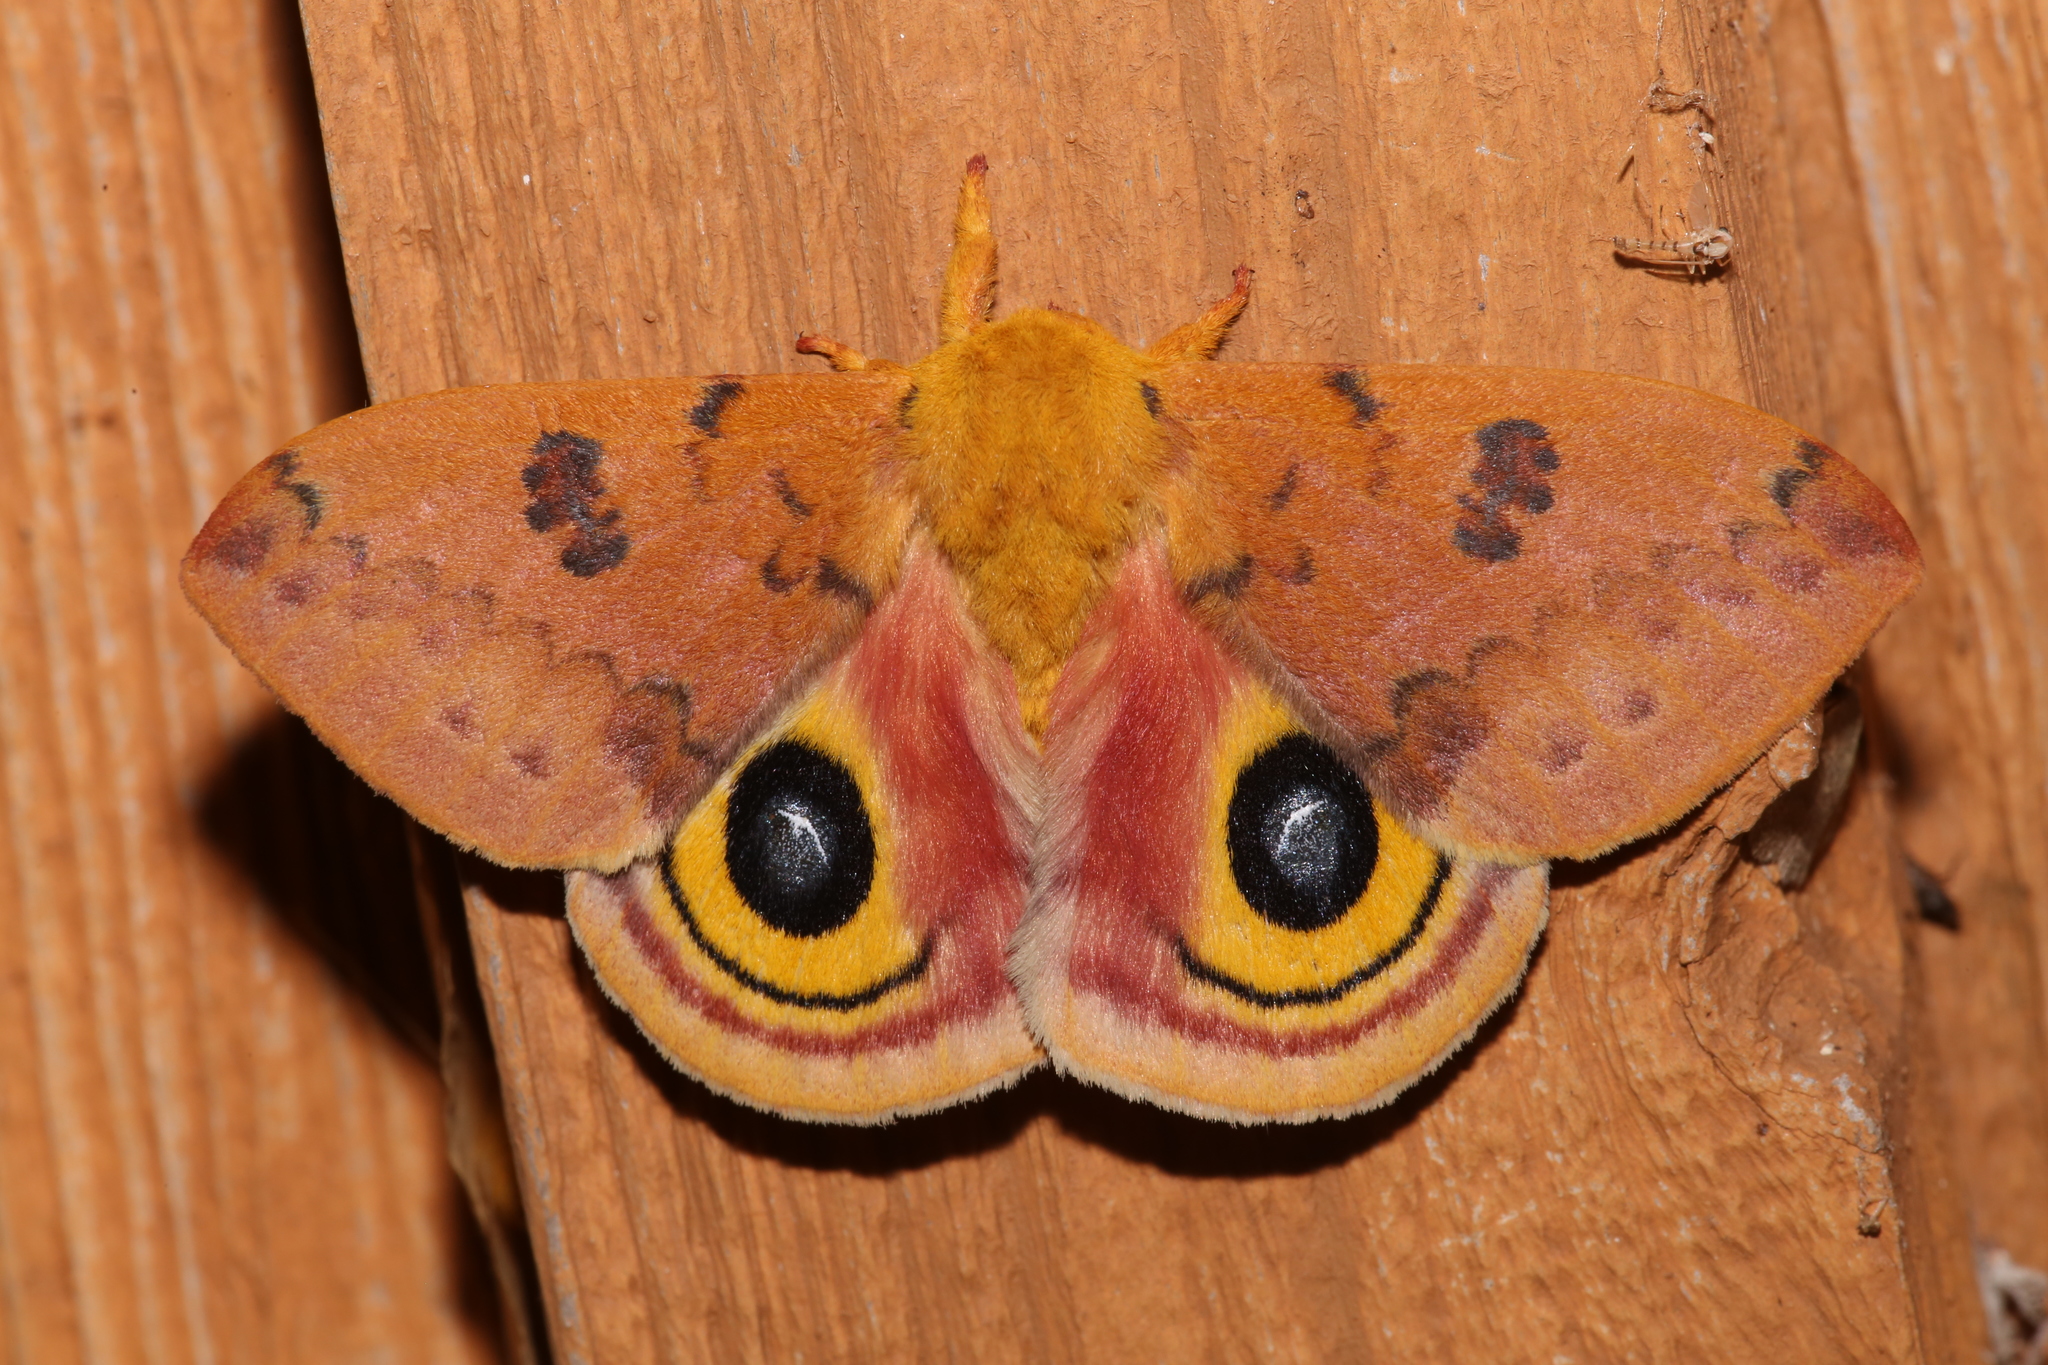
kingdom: Animalia
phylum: Arthropoda
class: Insecta
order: Lepidoptera
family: Saturniidae
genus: Automeris
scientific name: Automeris io
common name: Io moth
